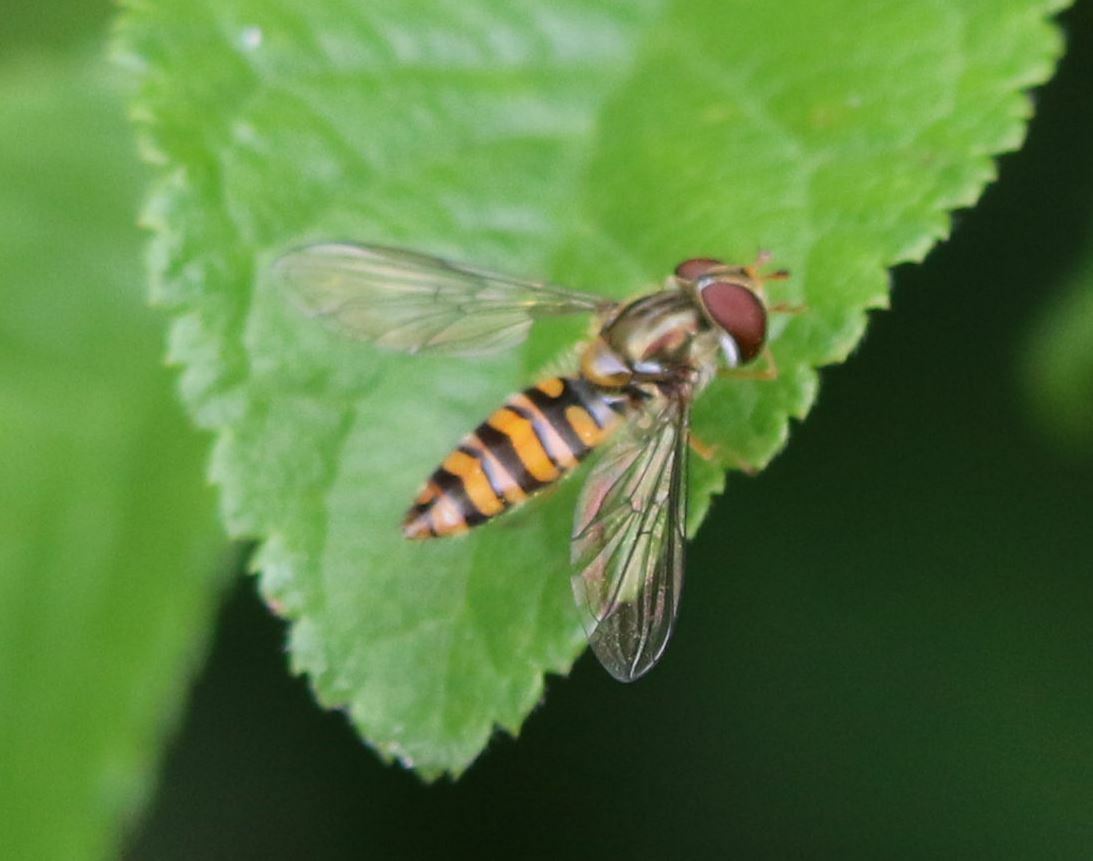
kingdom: Animalia
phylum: Arthropoda
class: Insecta
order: Diptera
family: Syrphidae
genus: Episyrphus
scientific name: Episyrphus balteatus
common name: Marmalade hoverfly
